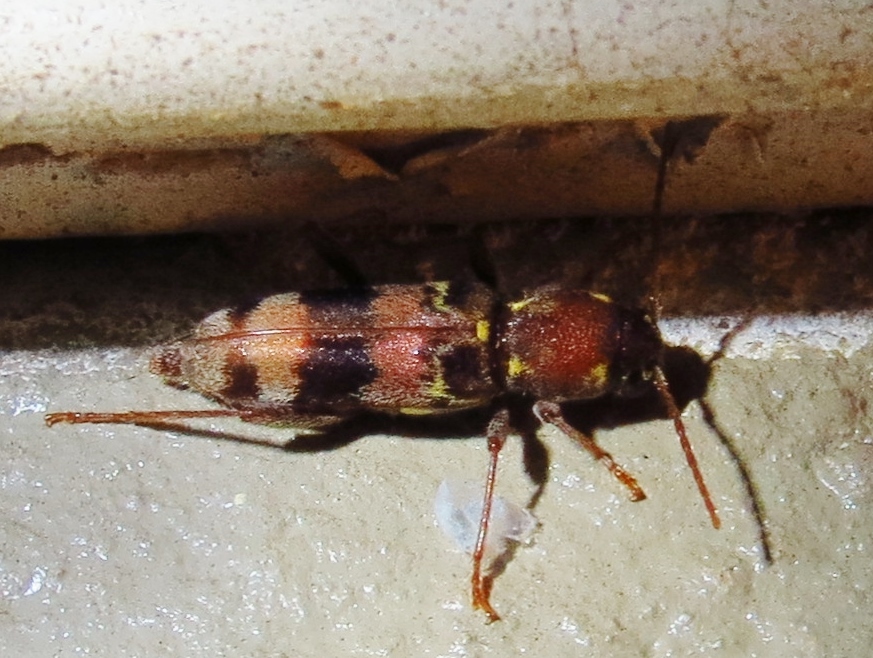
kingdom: Animalia
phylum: Arthropoda
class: Insecta
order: Coleoptera
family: Cerambycidae
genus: Xylotrechus
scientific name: Xylotrechus colonus
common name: Long-horned beetle
